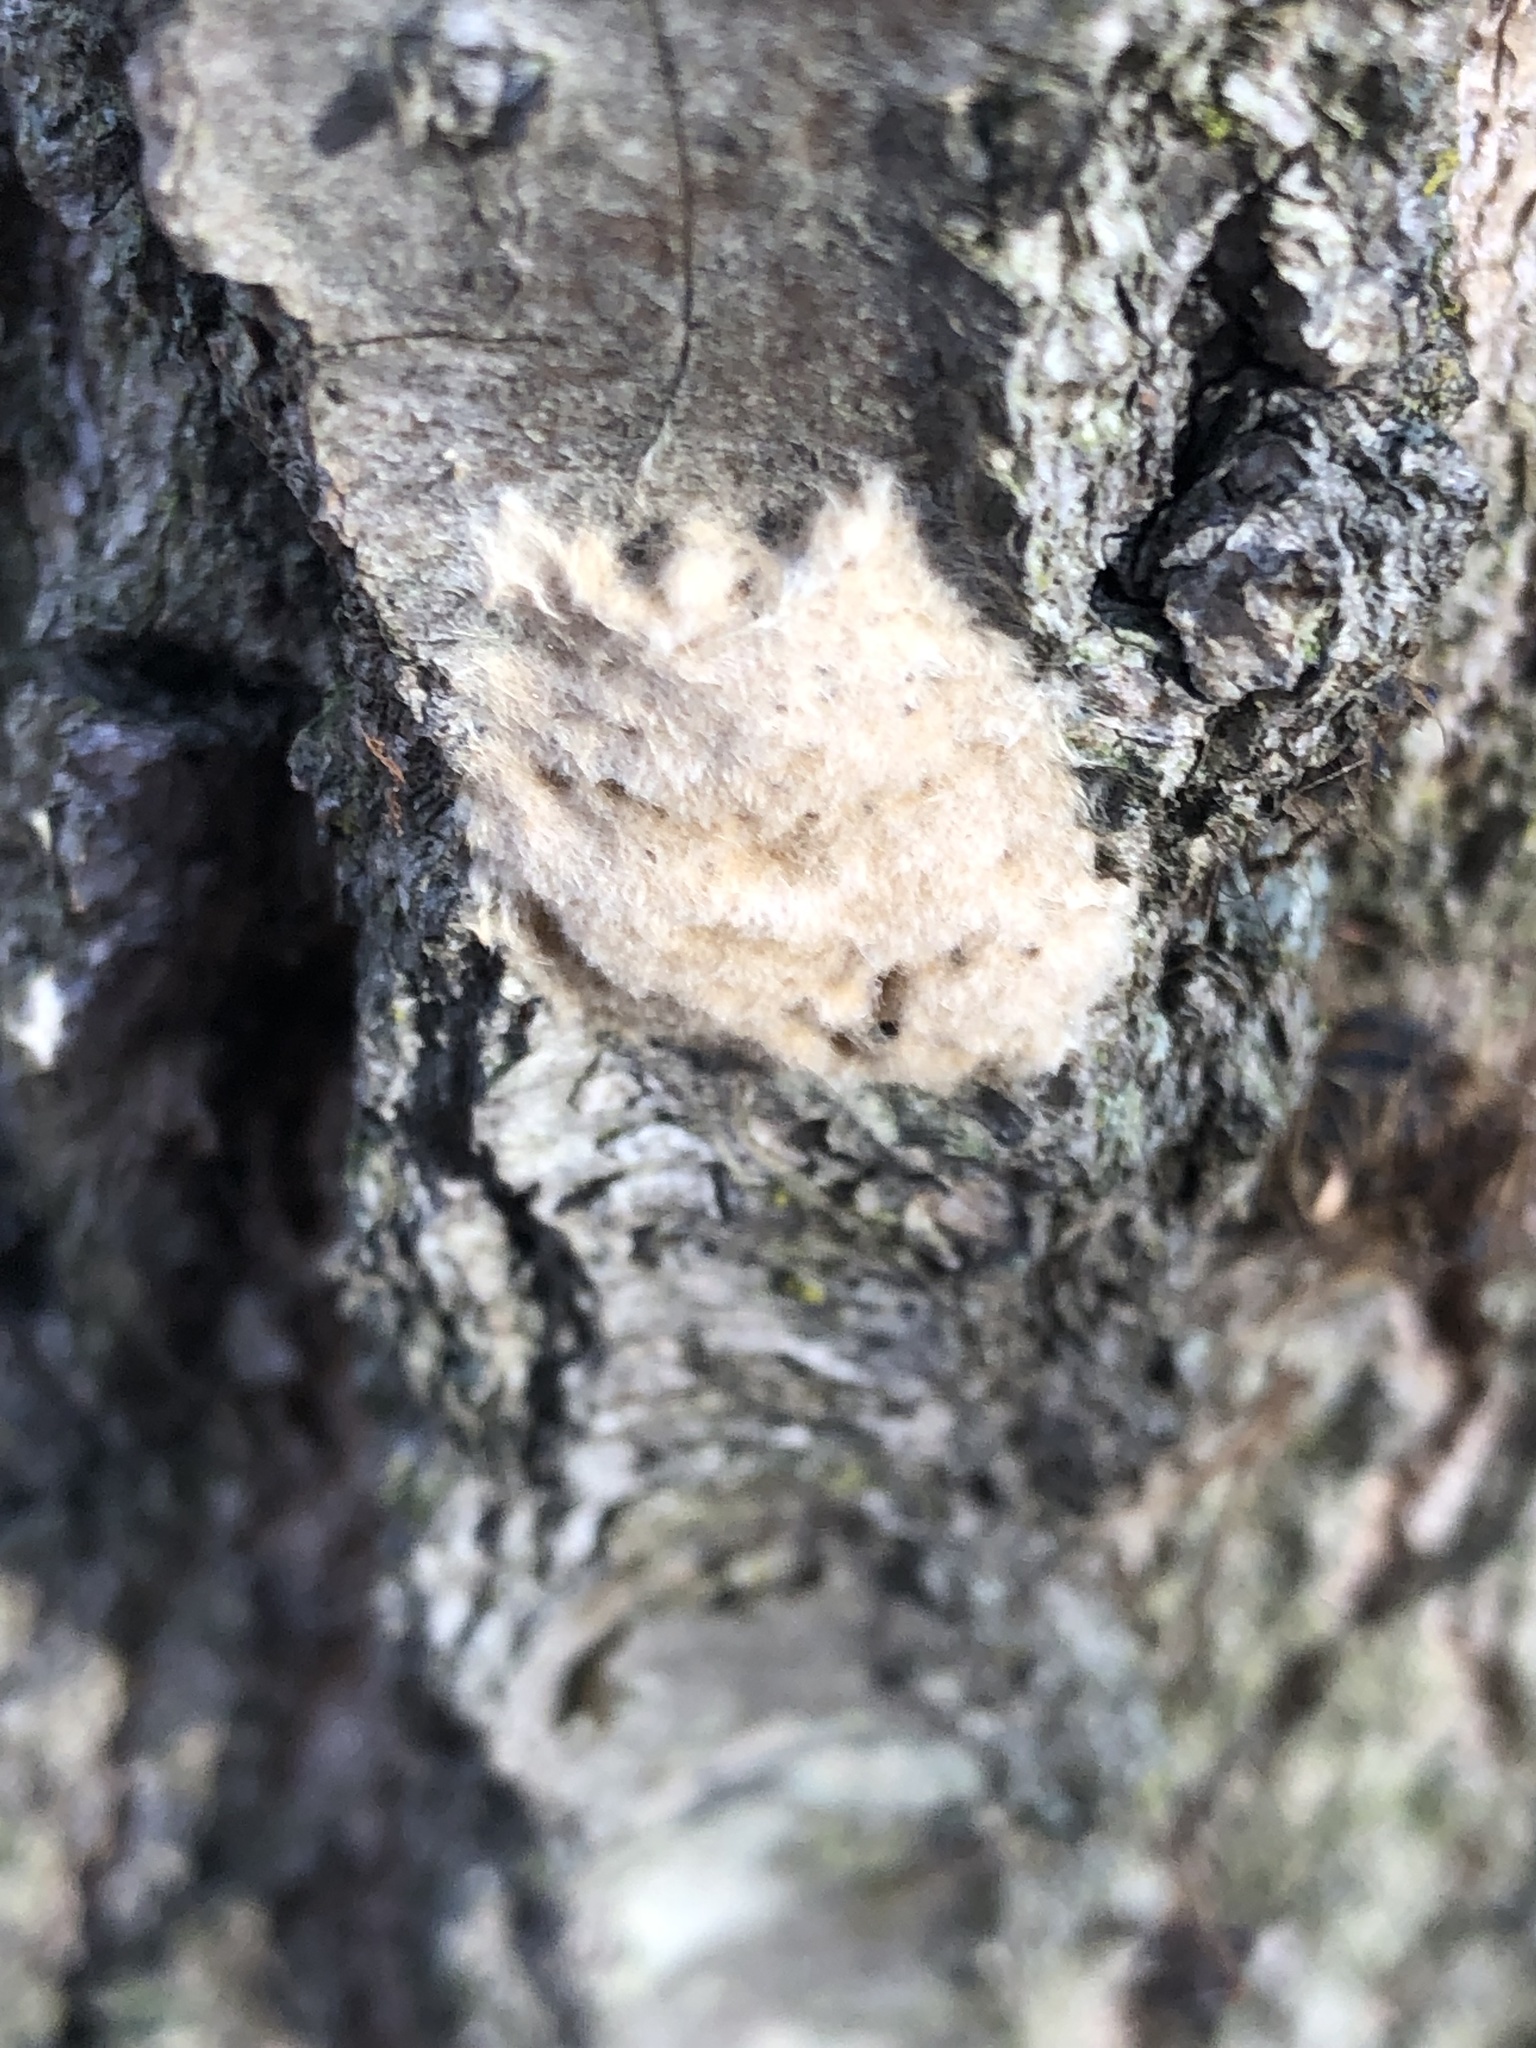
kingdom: Animalia
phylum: Arthropoda
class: Insecta
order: Lepidoptera
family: Erebidae
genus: Lymantria
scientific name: Lymantria dispar
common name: Gypsy moth
